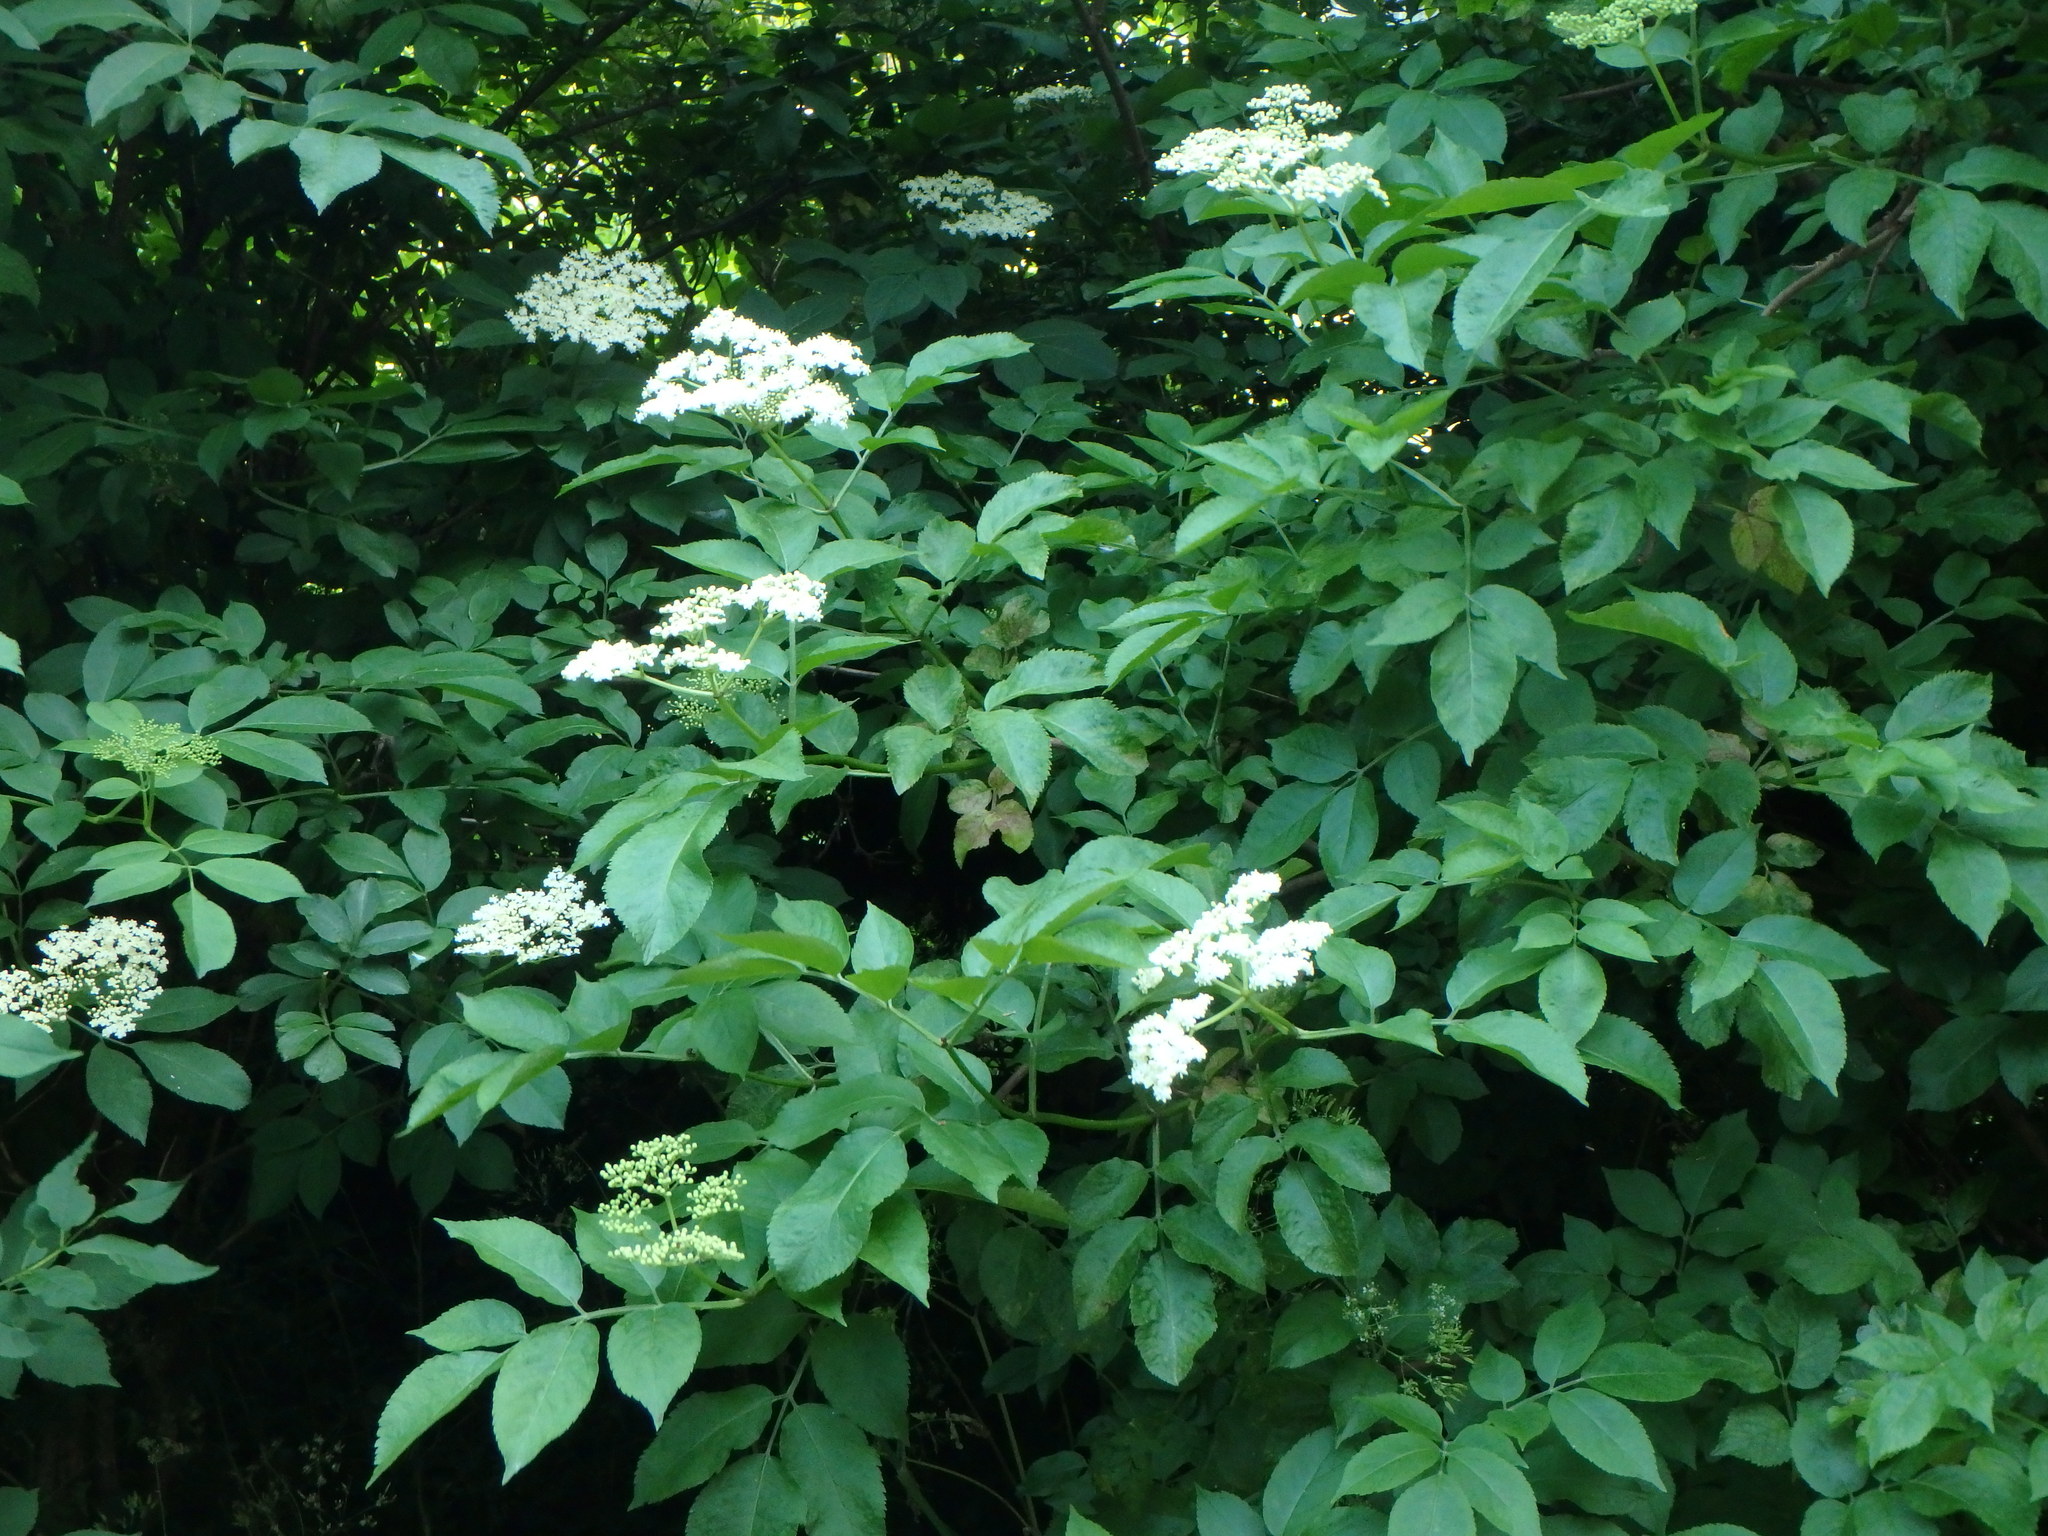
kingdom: Plantae
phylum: Tracheophyta
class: Magnoliopsida
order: Dipsacales
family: Viburnaceae
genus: Sambucus
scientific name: Sambucus nigra
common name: Elder
